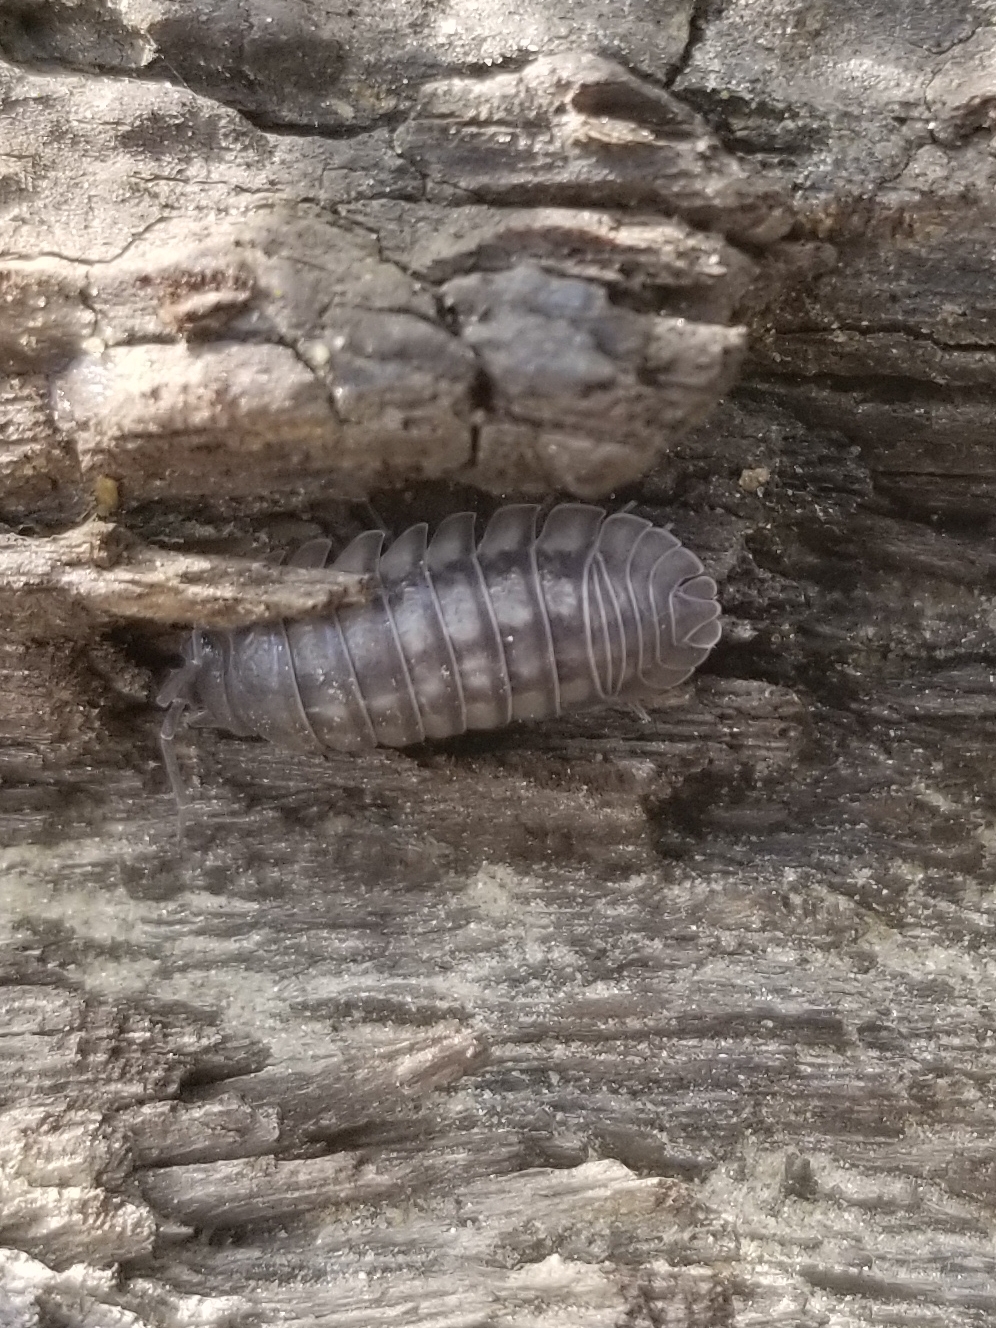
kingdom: Animalia
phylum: Arthropoda
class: Malacostraca
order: Isopoda
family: Armadillidiidae
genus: Armadillidium
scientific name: Armadillidium nasatum
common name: Isopod
